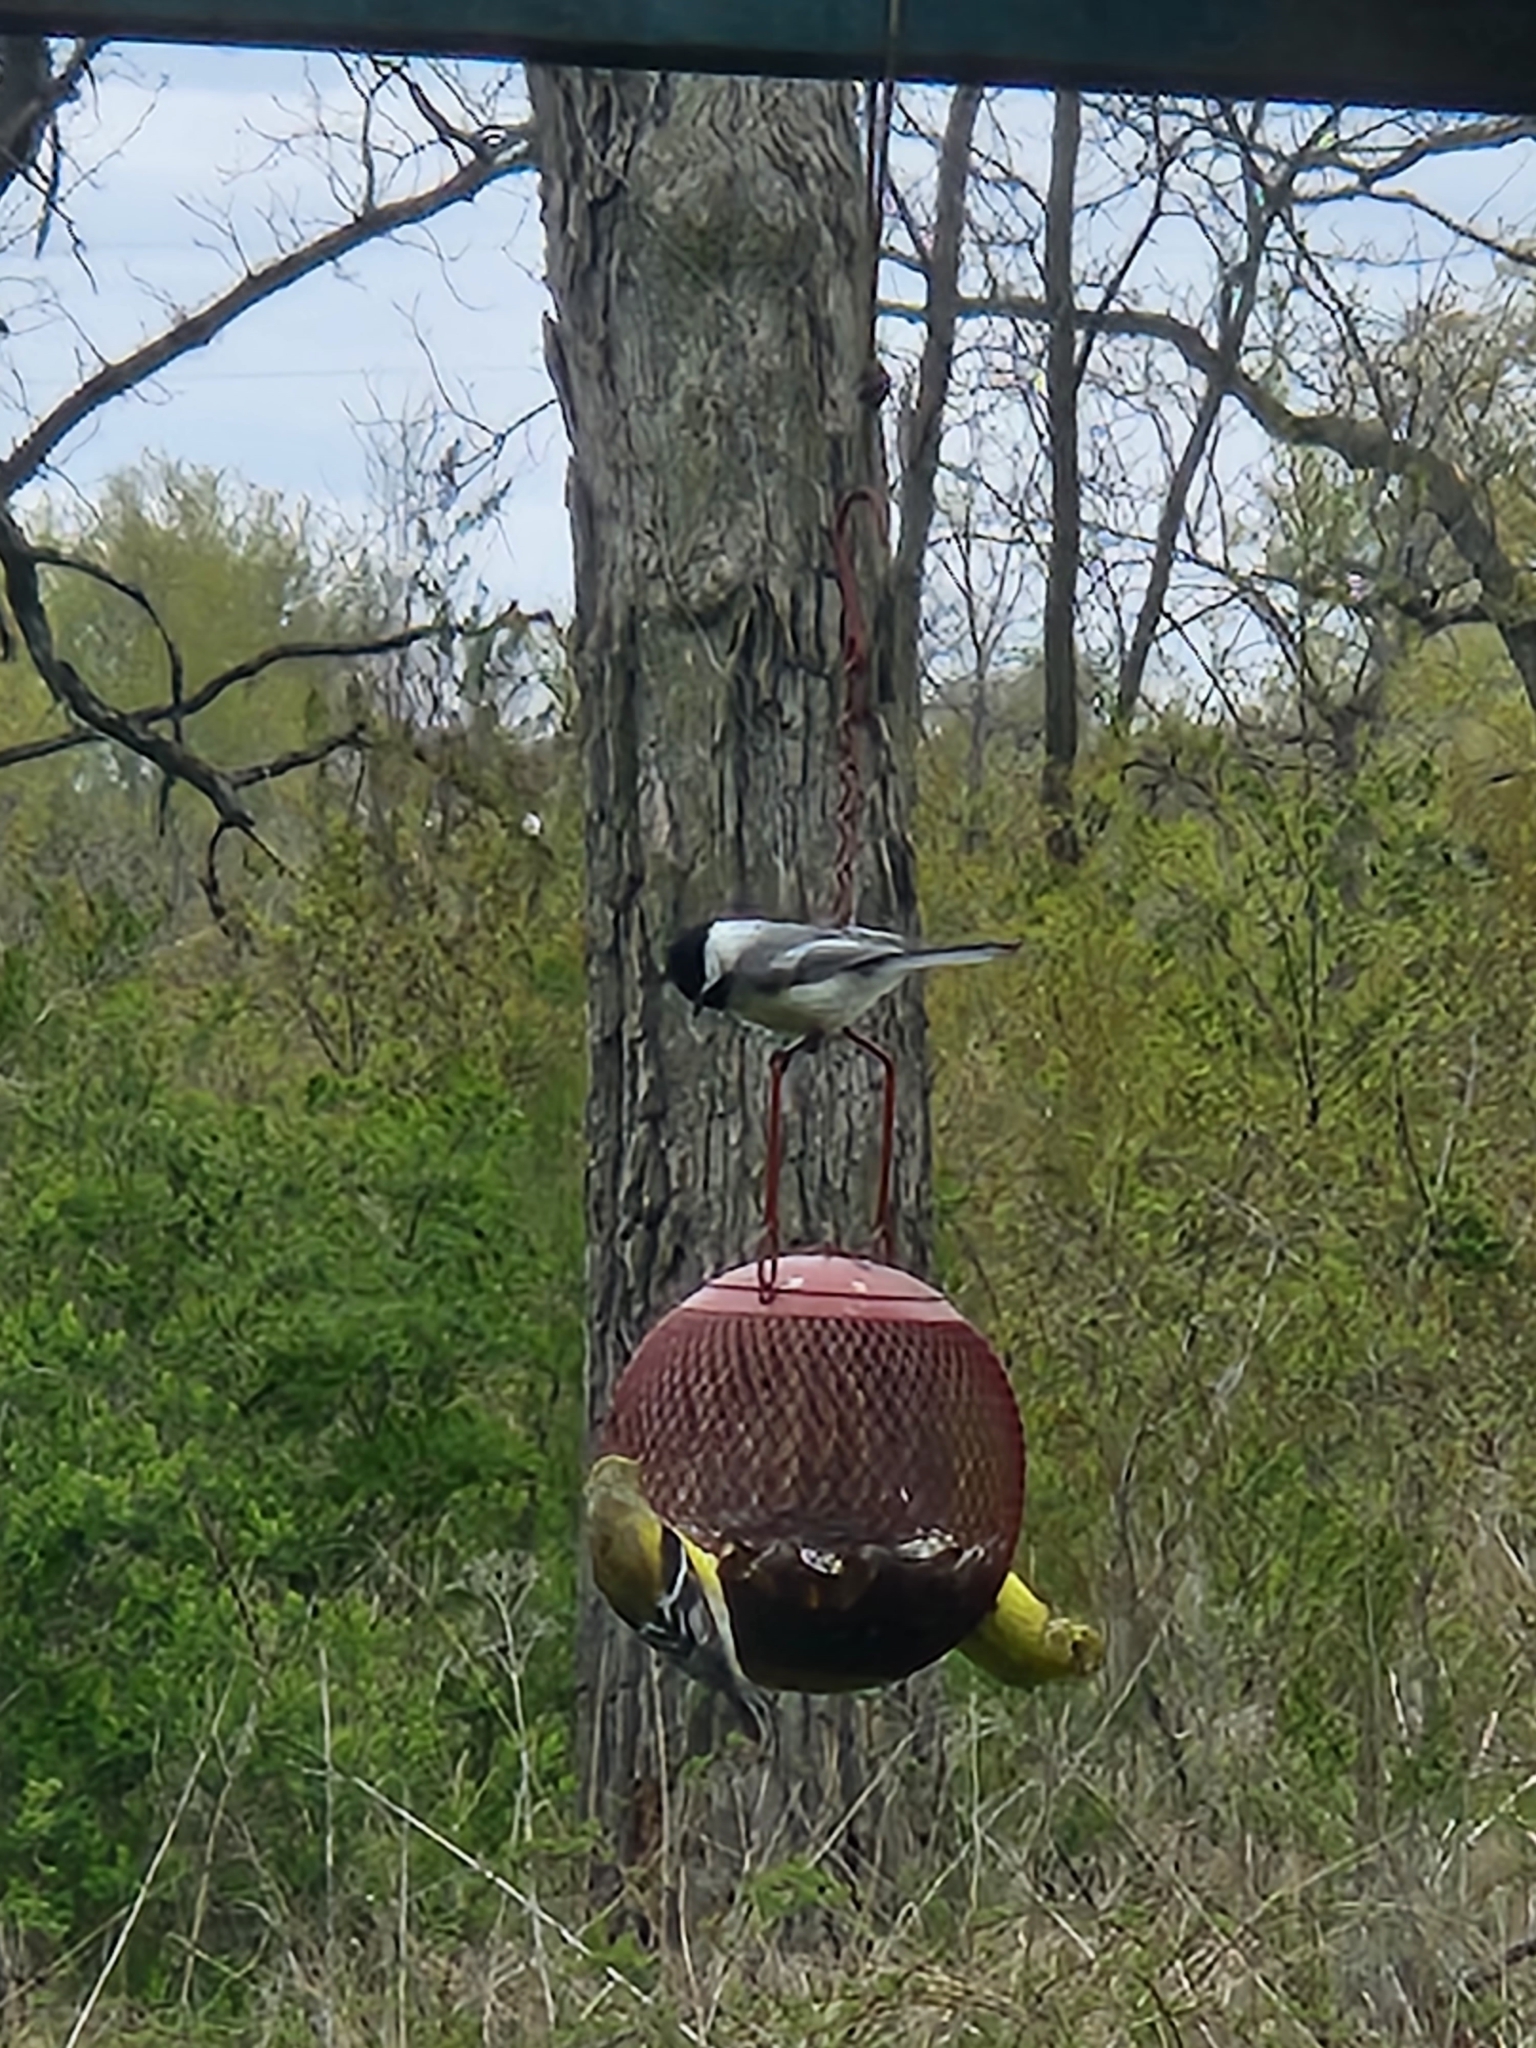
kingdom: Animalia
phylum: Chordata
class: Aves
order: Passeriformes
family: Paridae
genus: Poecile
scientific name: Poecile atricapillus
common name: Black-capped chickadee
